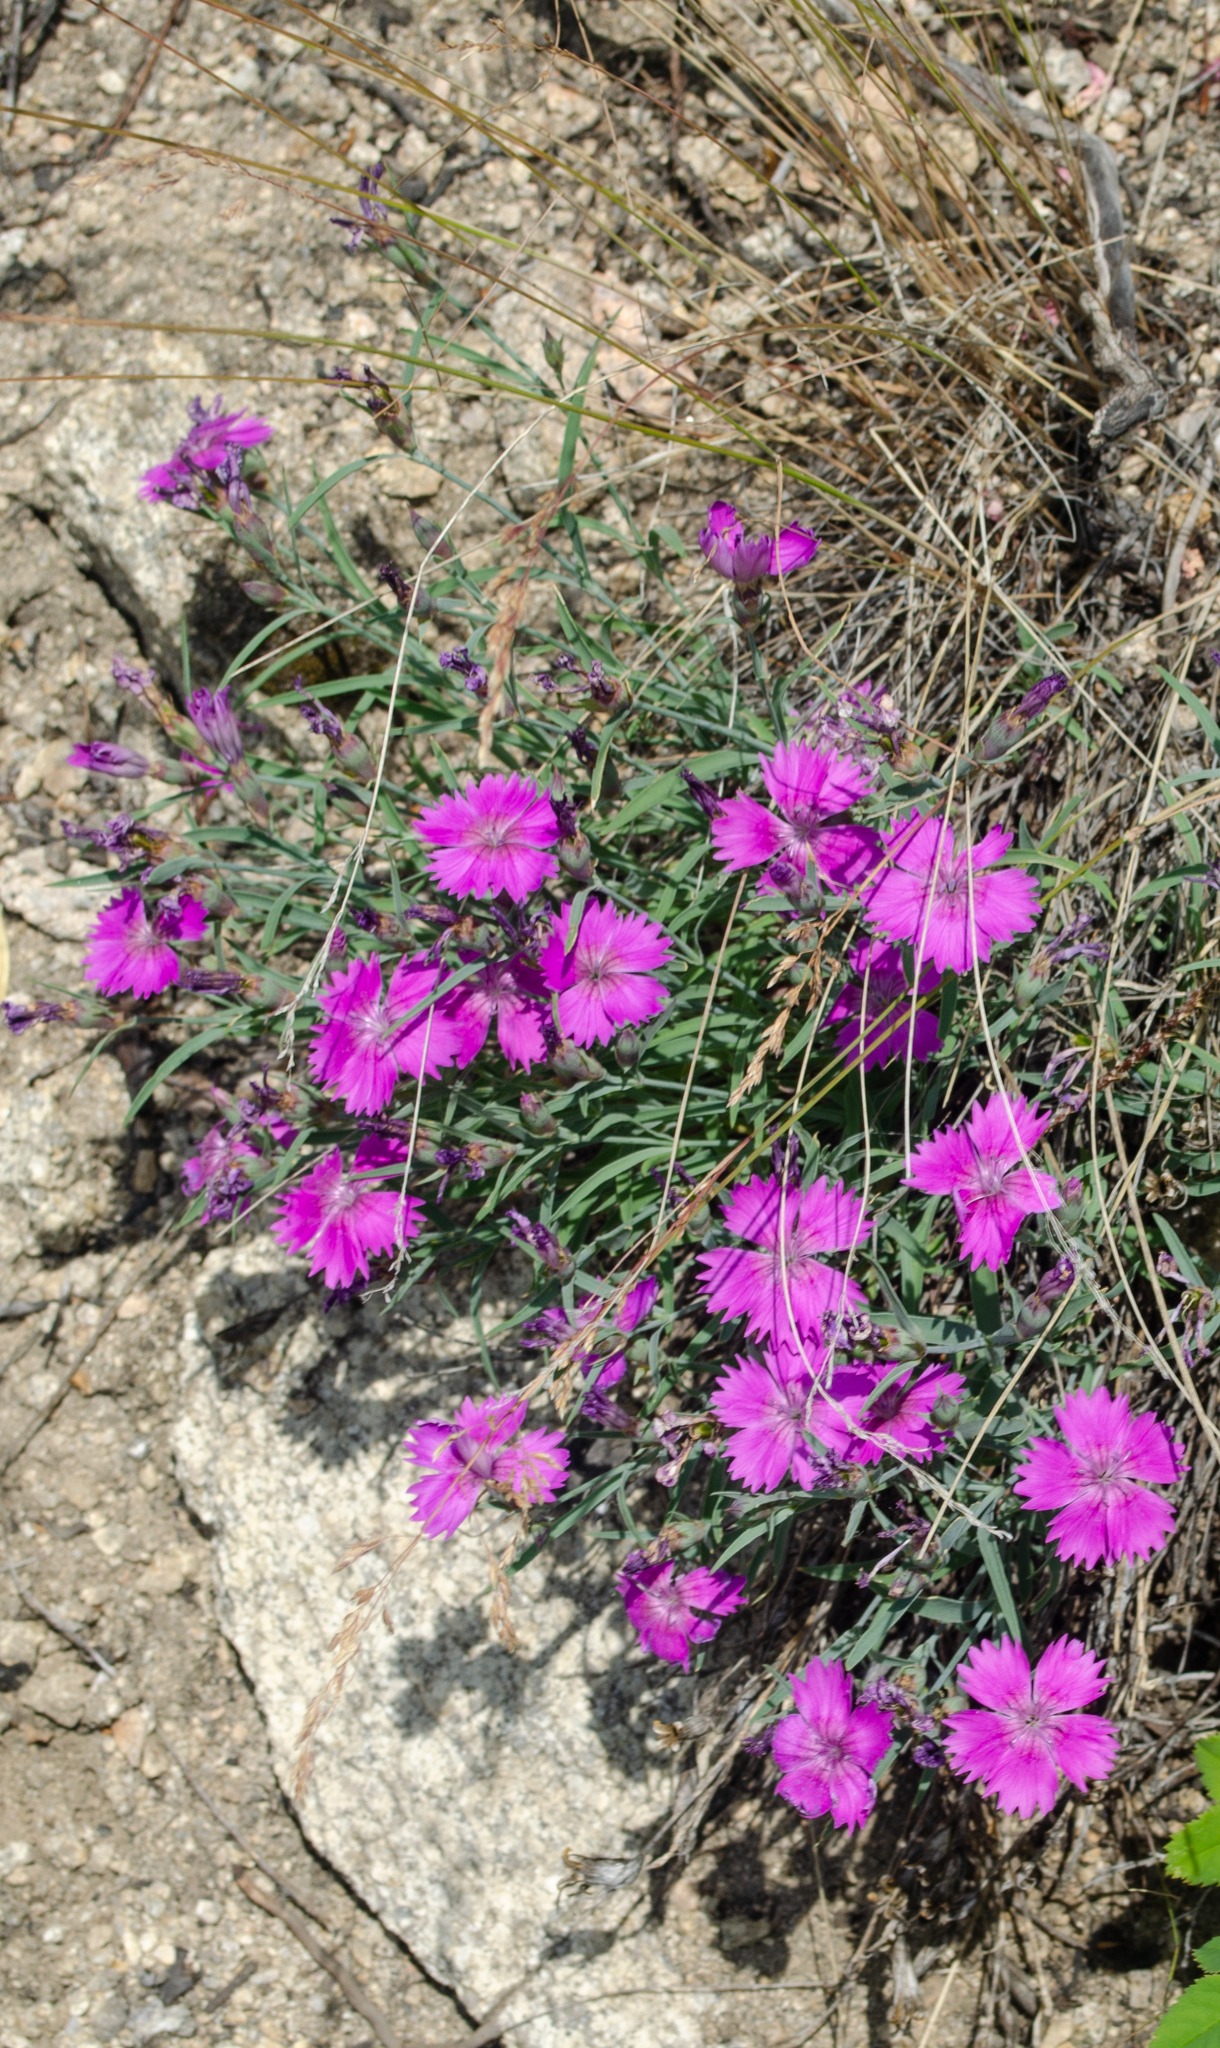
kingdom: Plantae
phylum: Tracheophyta
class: Magnoliopsida
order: Caryophyllales
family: Caryophyllaceae
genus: Dianthus
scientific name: Dianthus chinensis
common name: Rainbow pink
